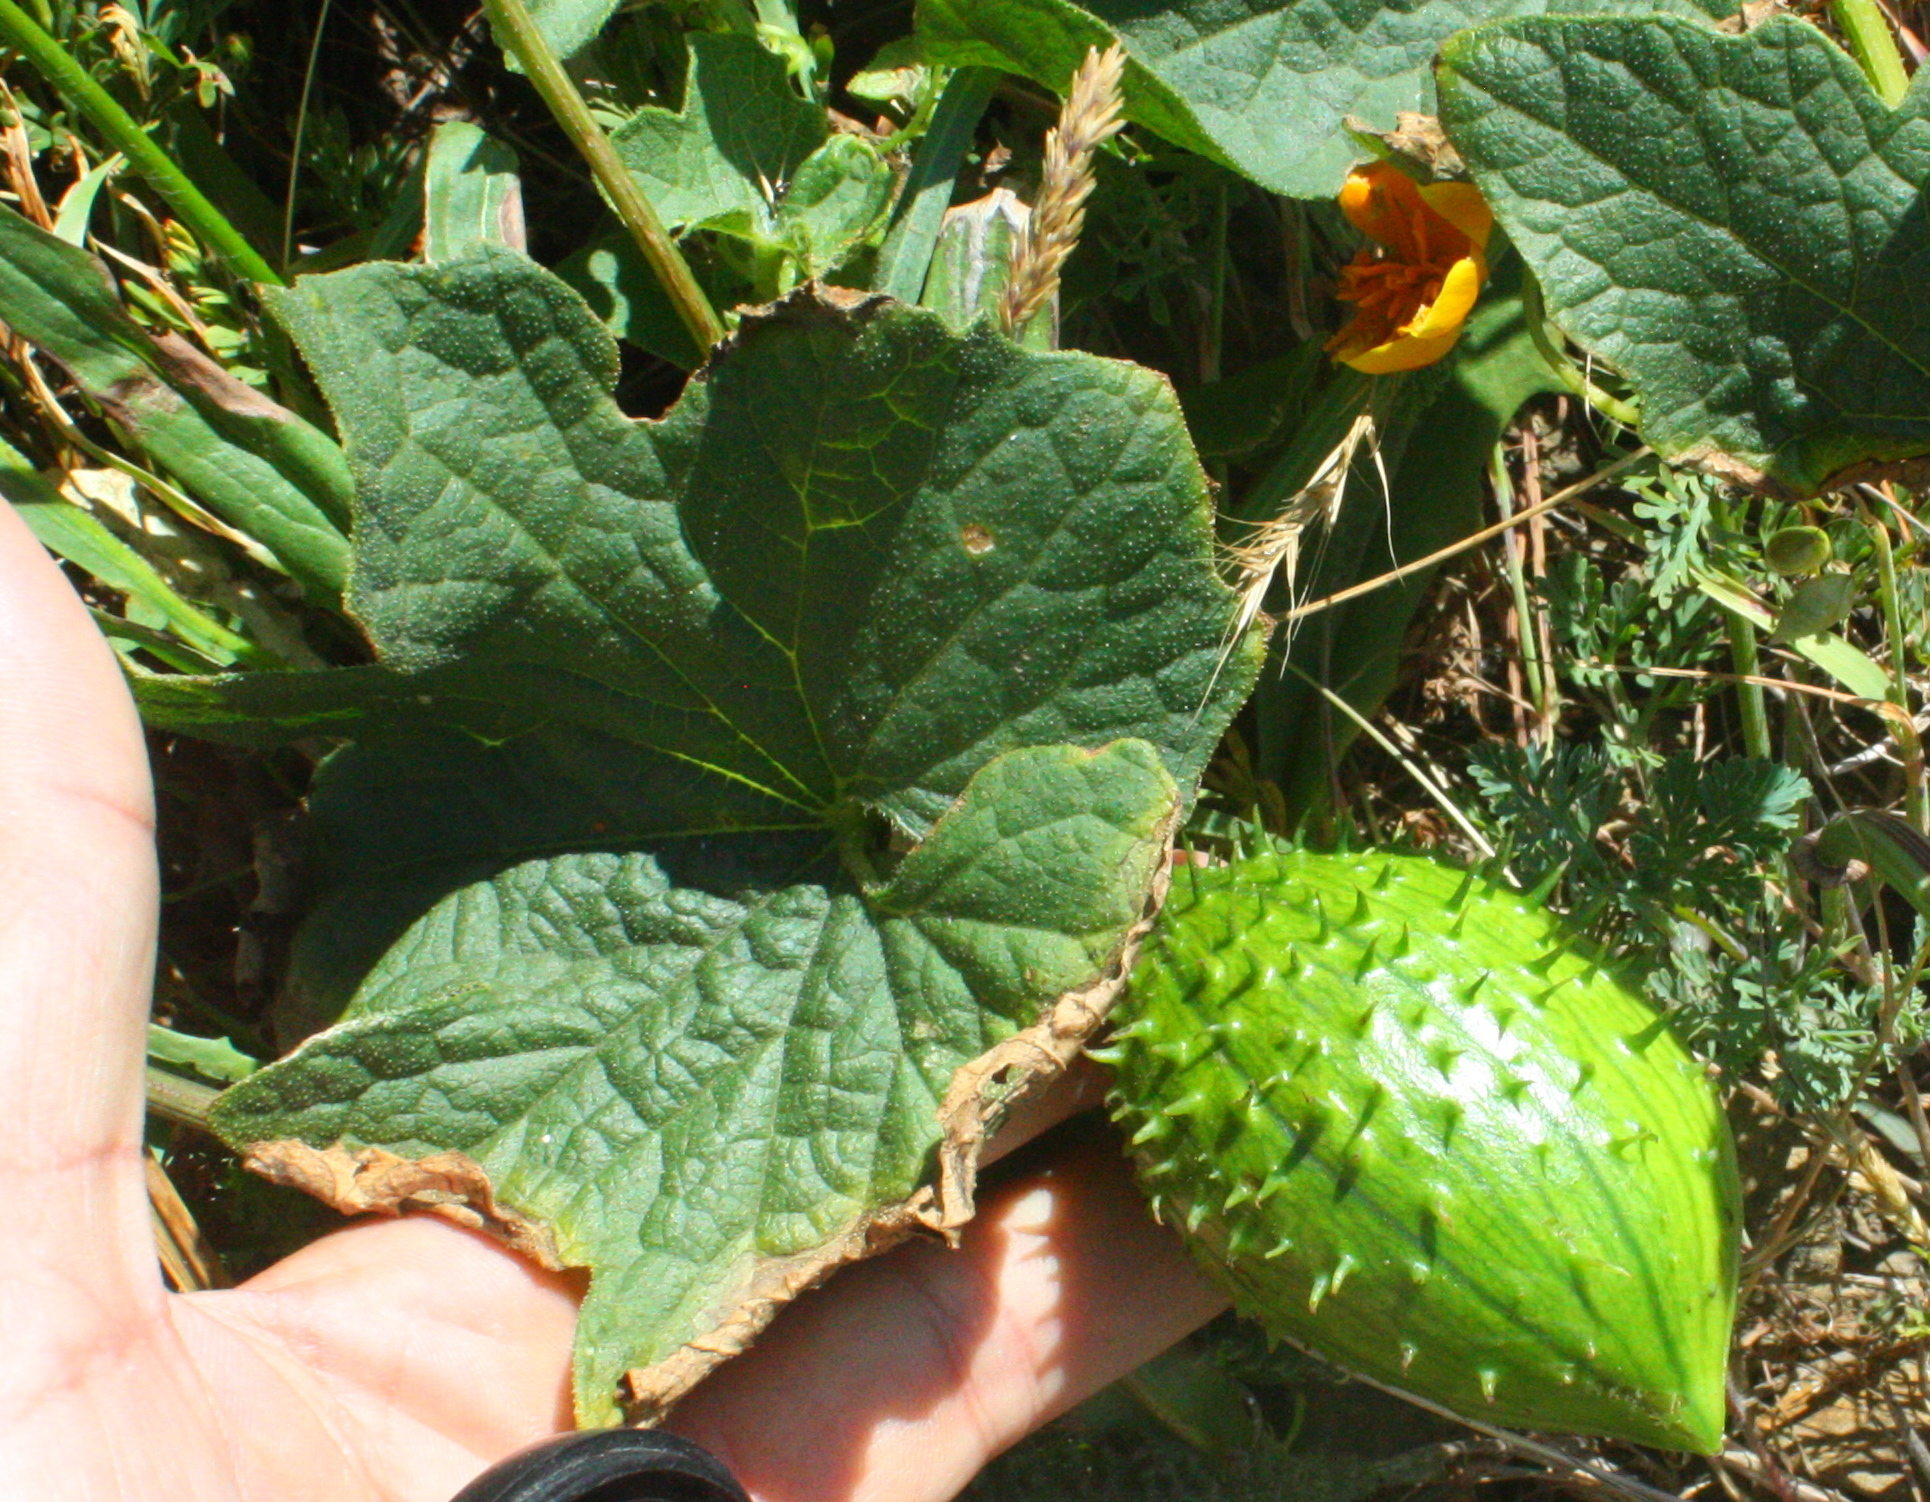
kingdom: Plantae
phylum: Tracheophyta
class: Magnoliopsida
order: Cucurbitales
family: Cucurbitaceae
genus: Marah
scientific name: Marah oregana
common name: Coastal manroot
